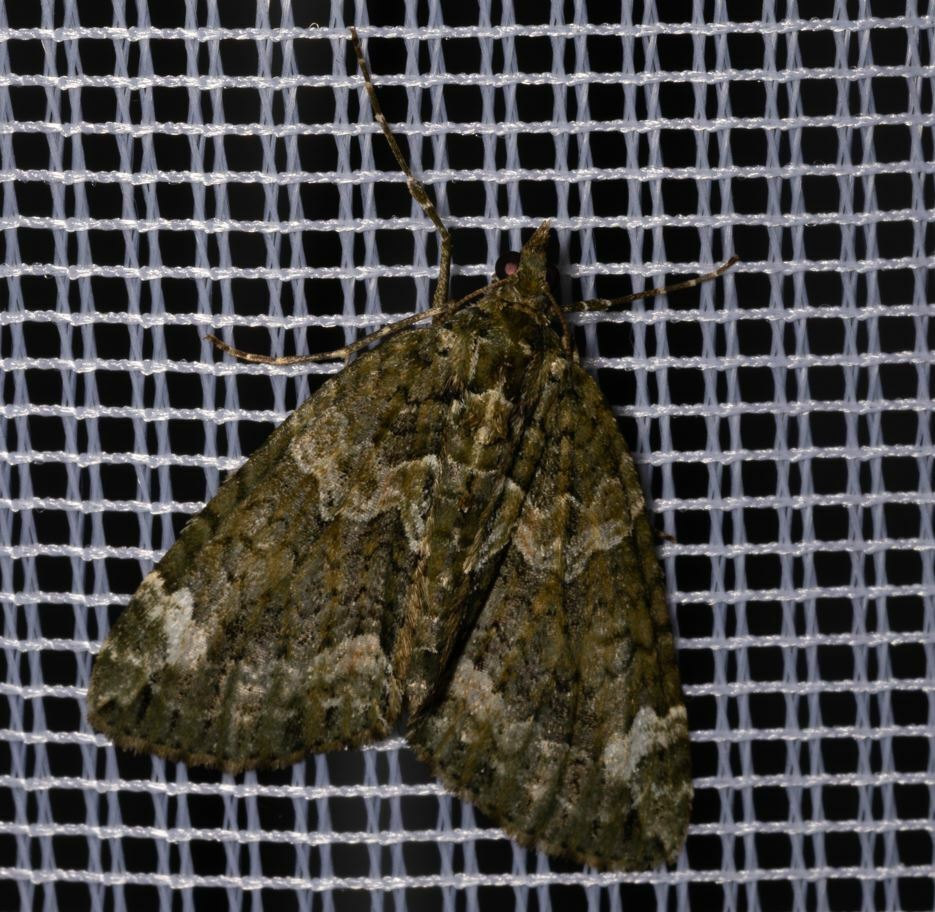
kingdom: Animalia
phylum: Arthropoda
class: Insecta
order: Lepidoptera
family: Geometridae
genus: Chloroclysta
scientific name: Chloroclysta siterata
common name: Red-green carpet
